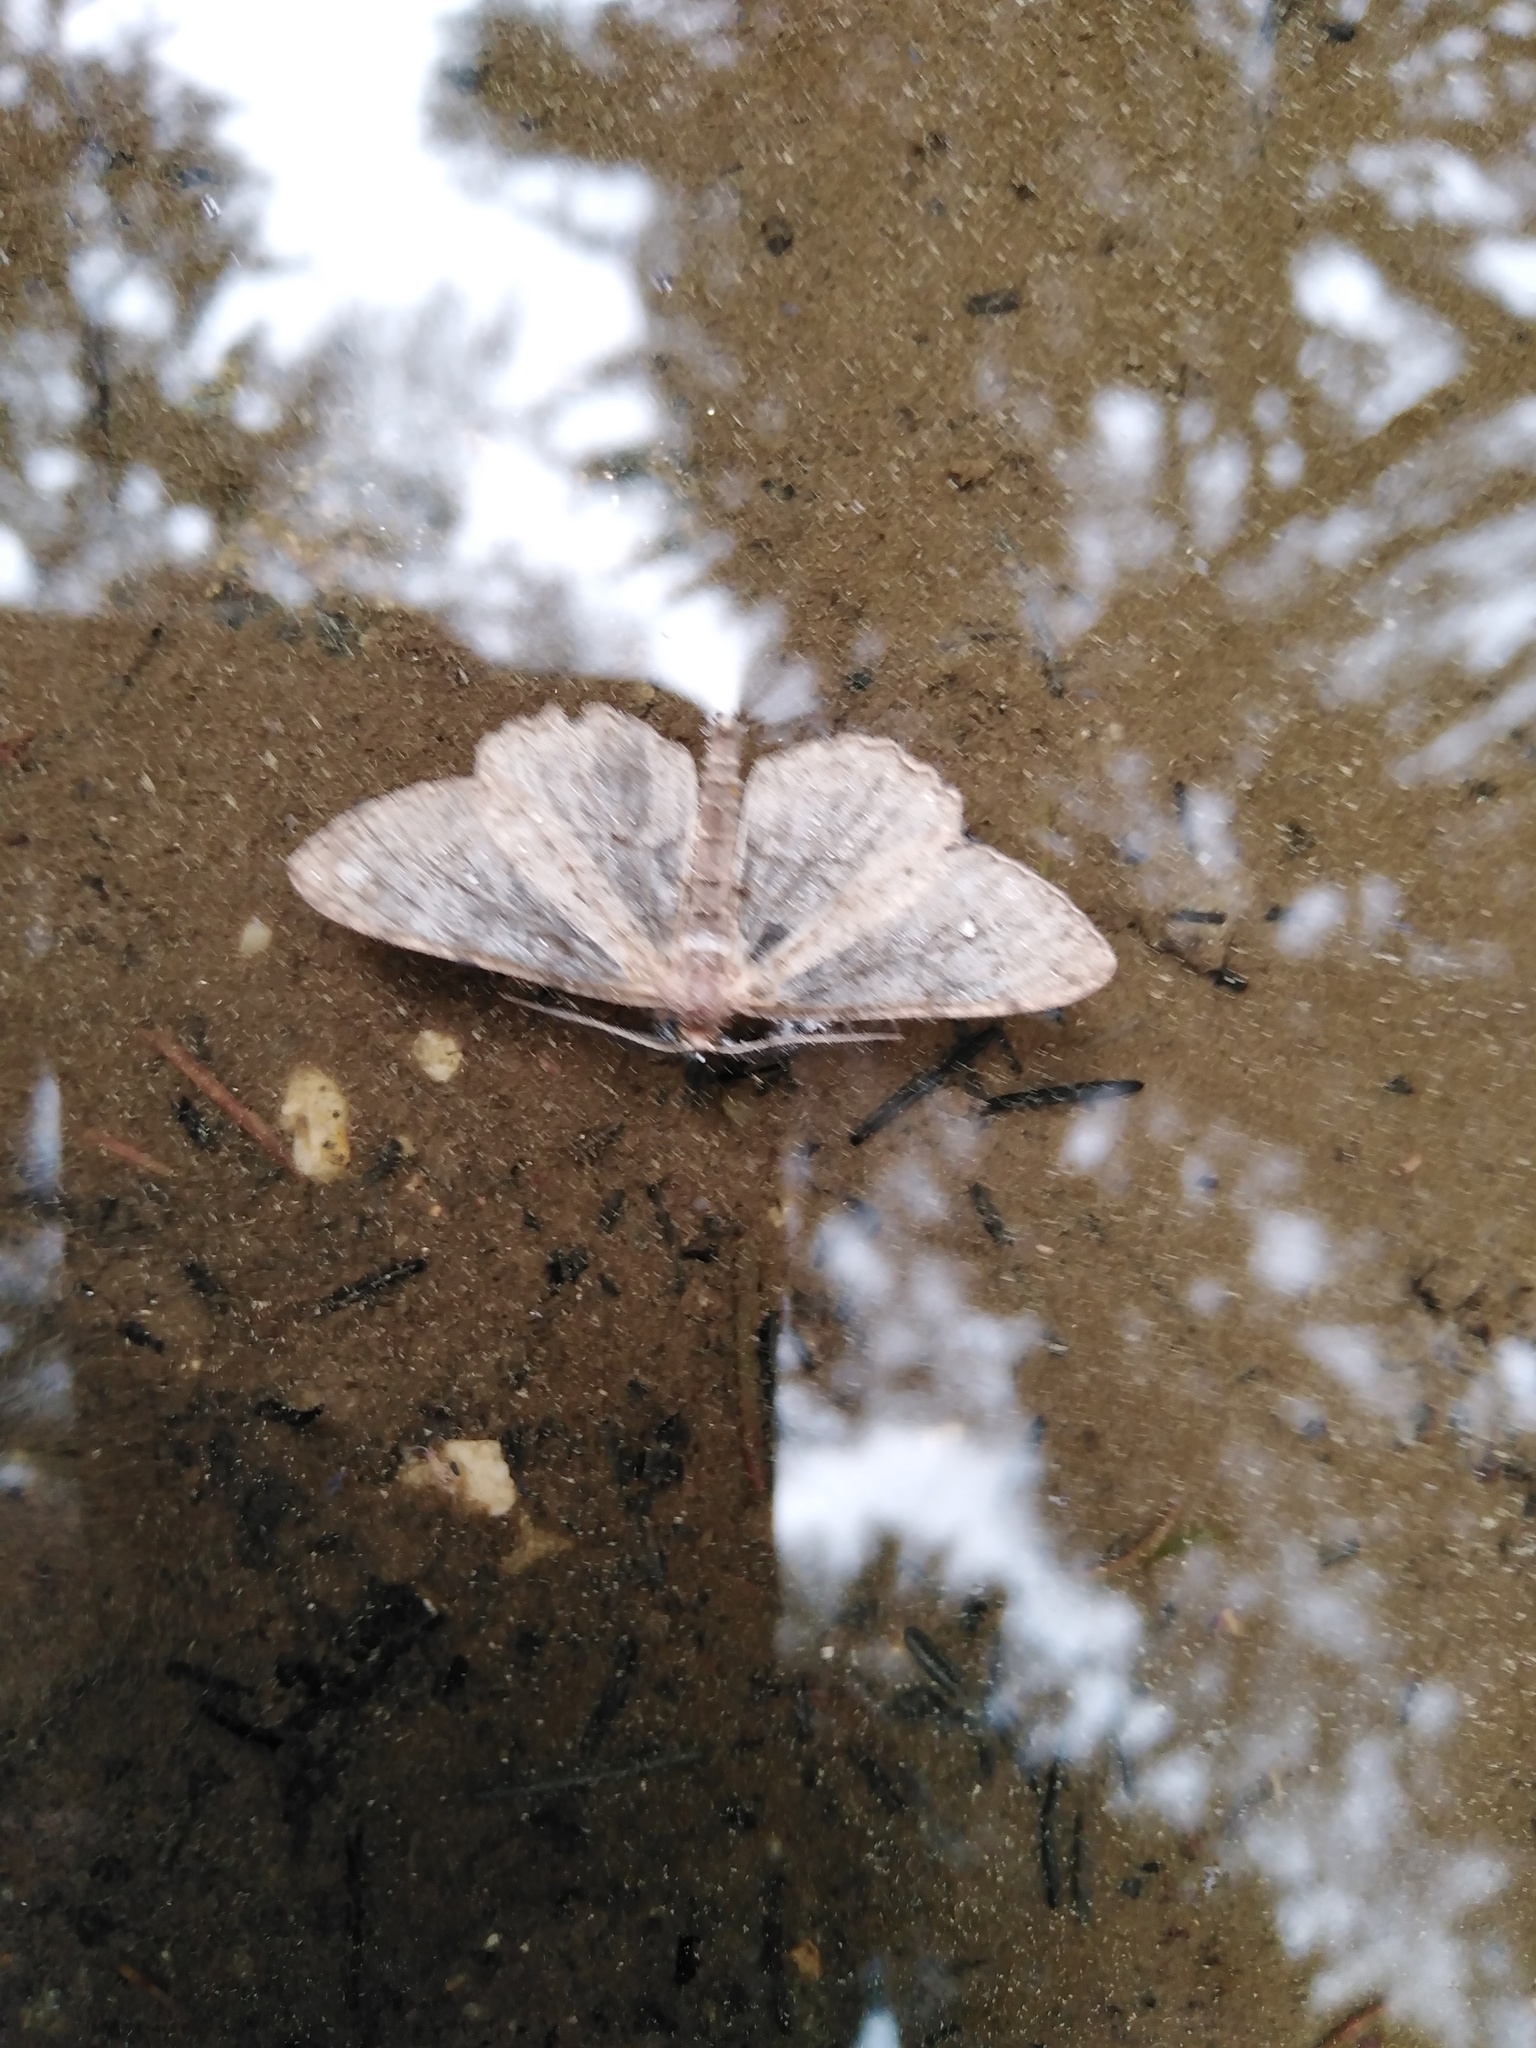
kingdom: Animalia
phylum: Arthropoda
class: Insecta
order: Lepidoptera
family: Geometridae
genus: Hypomecis
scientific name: Hypomecis punctinalis
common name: Pale oak beauty
